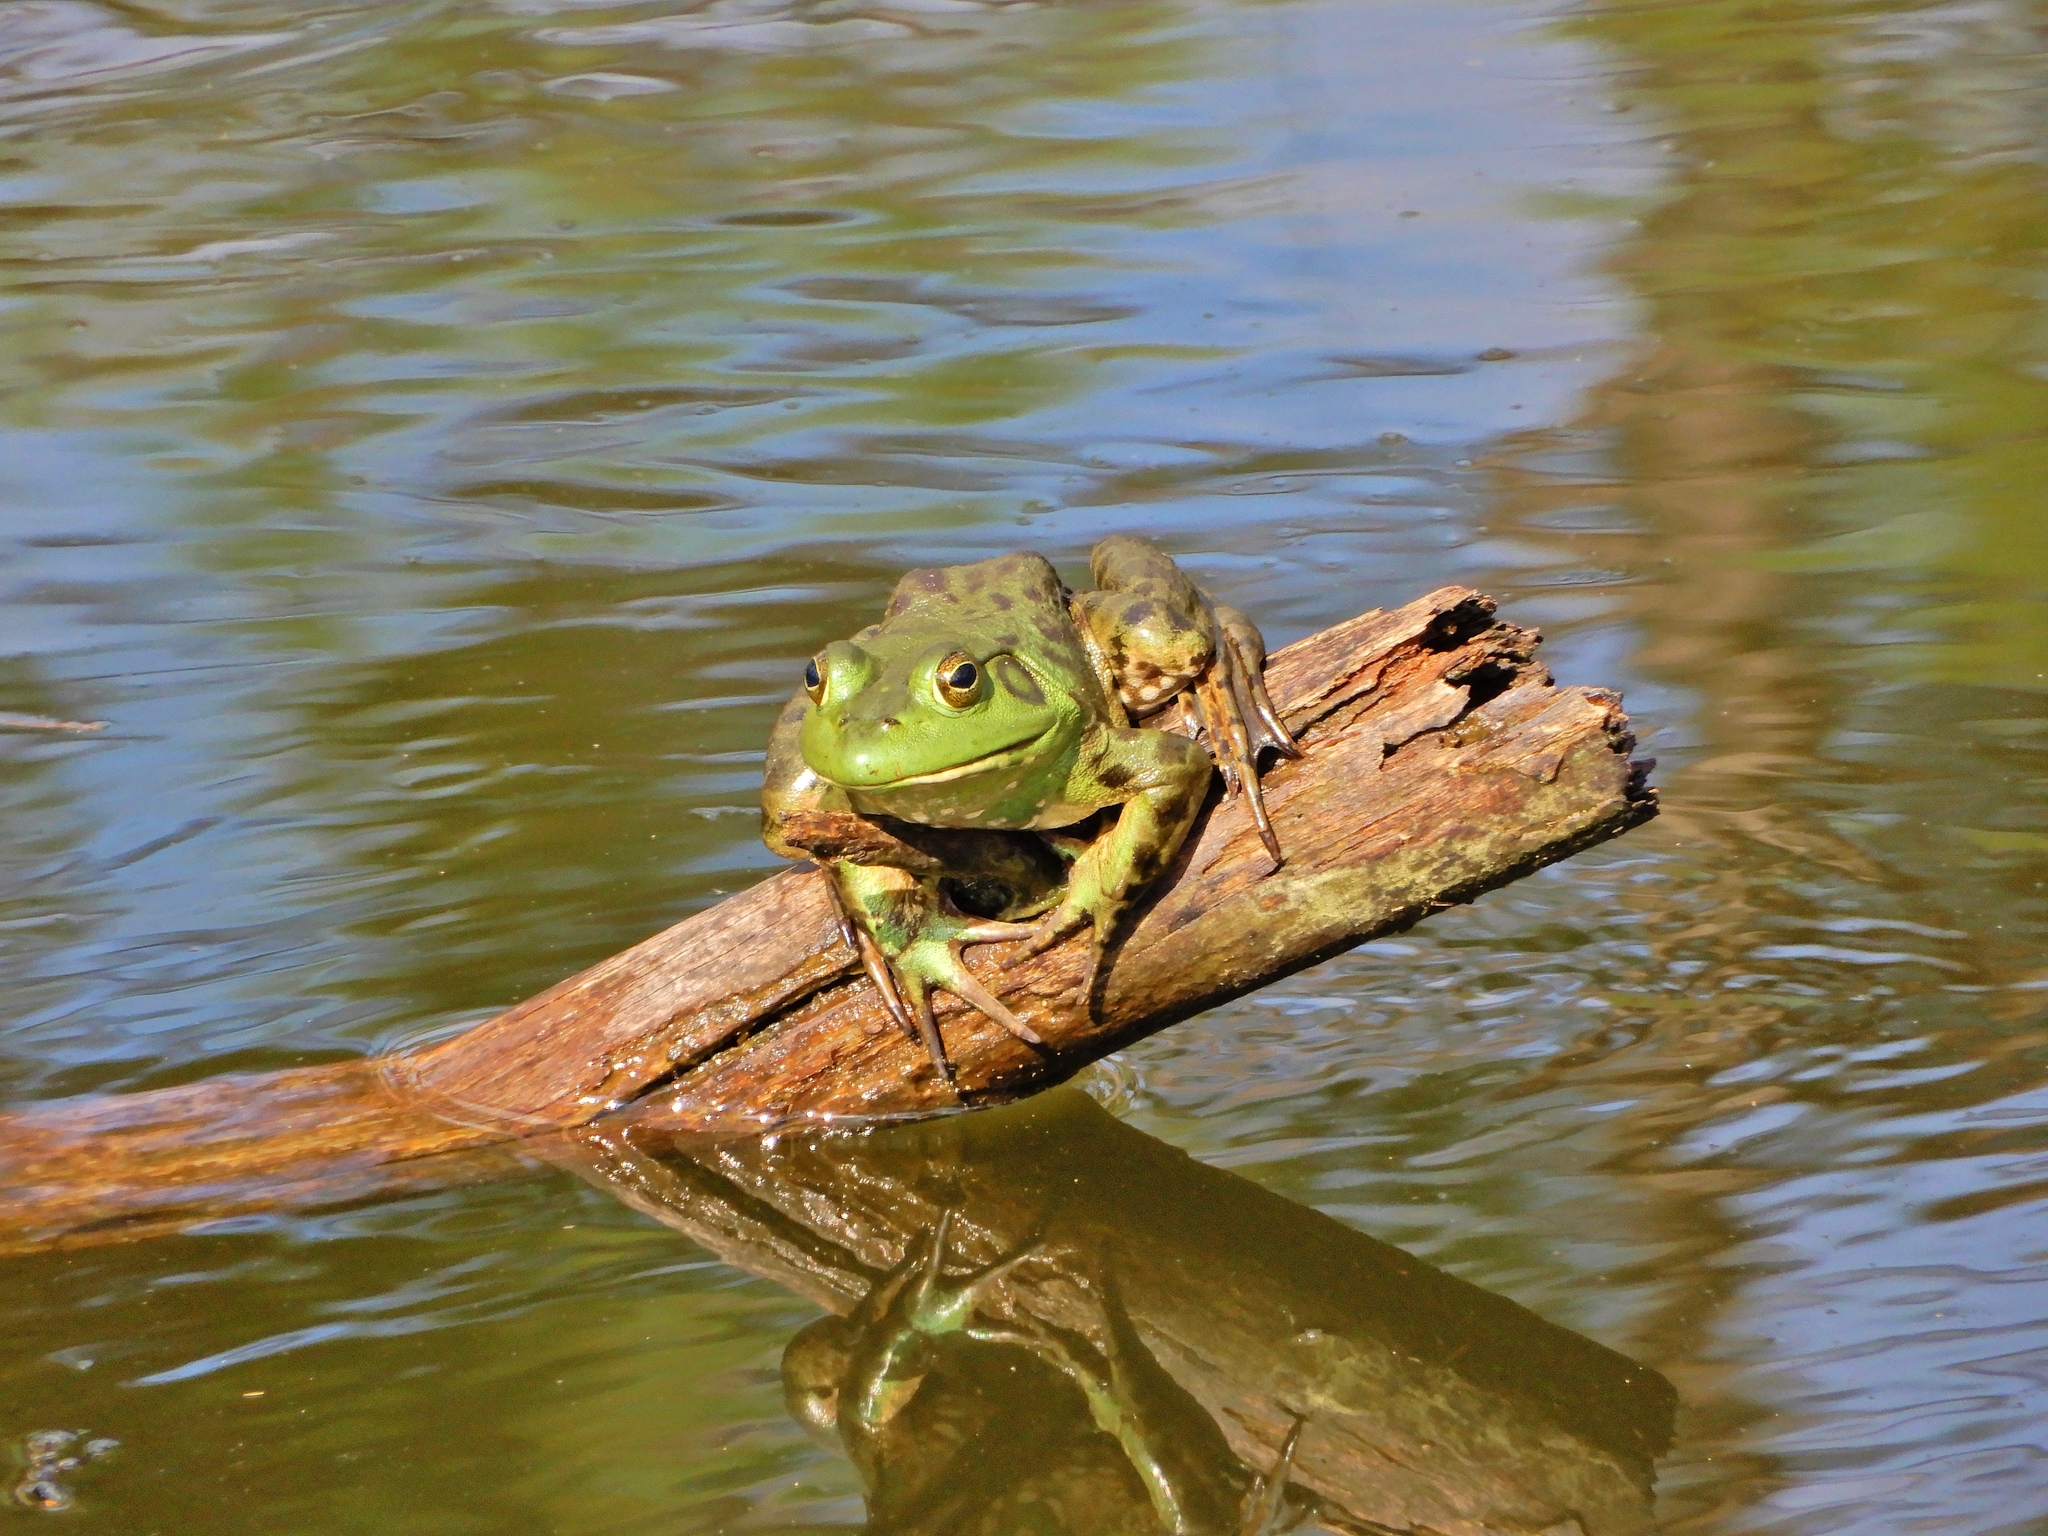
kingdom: Animalia
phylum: Chordata
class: Amphibia
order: Anura
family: Ranidae
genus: Lithobates
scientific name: Lithobates catesbeianus
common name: American bullfrog
